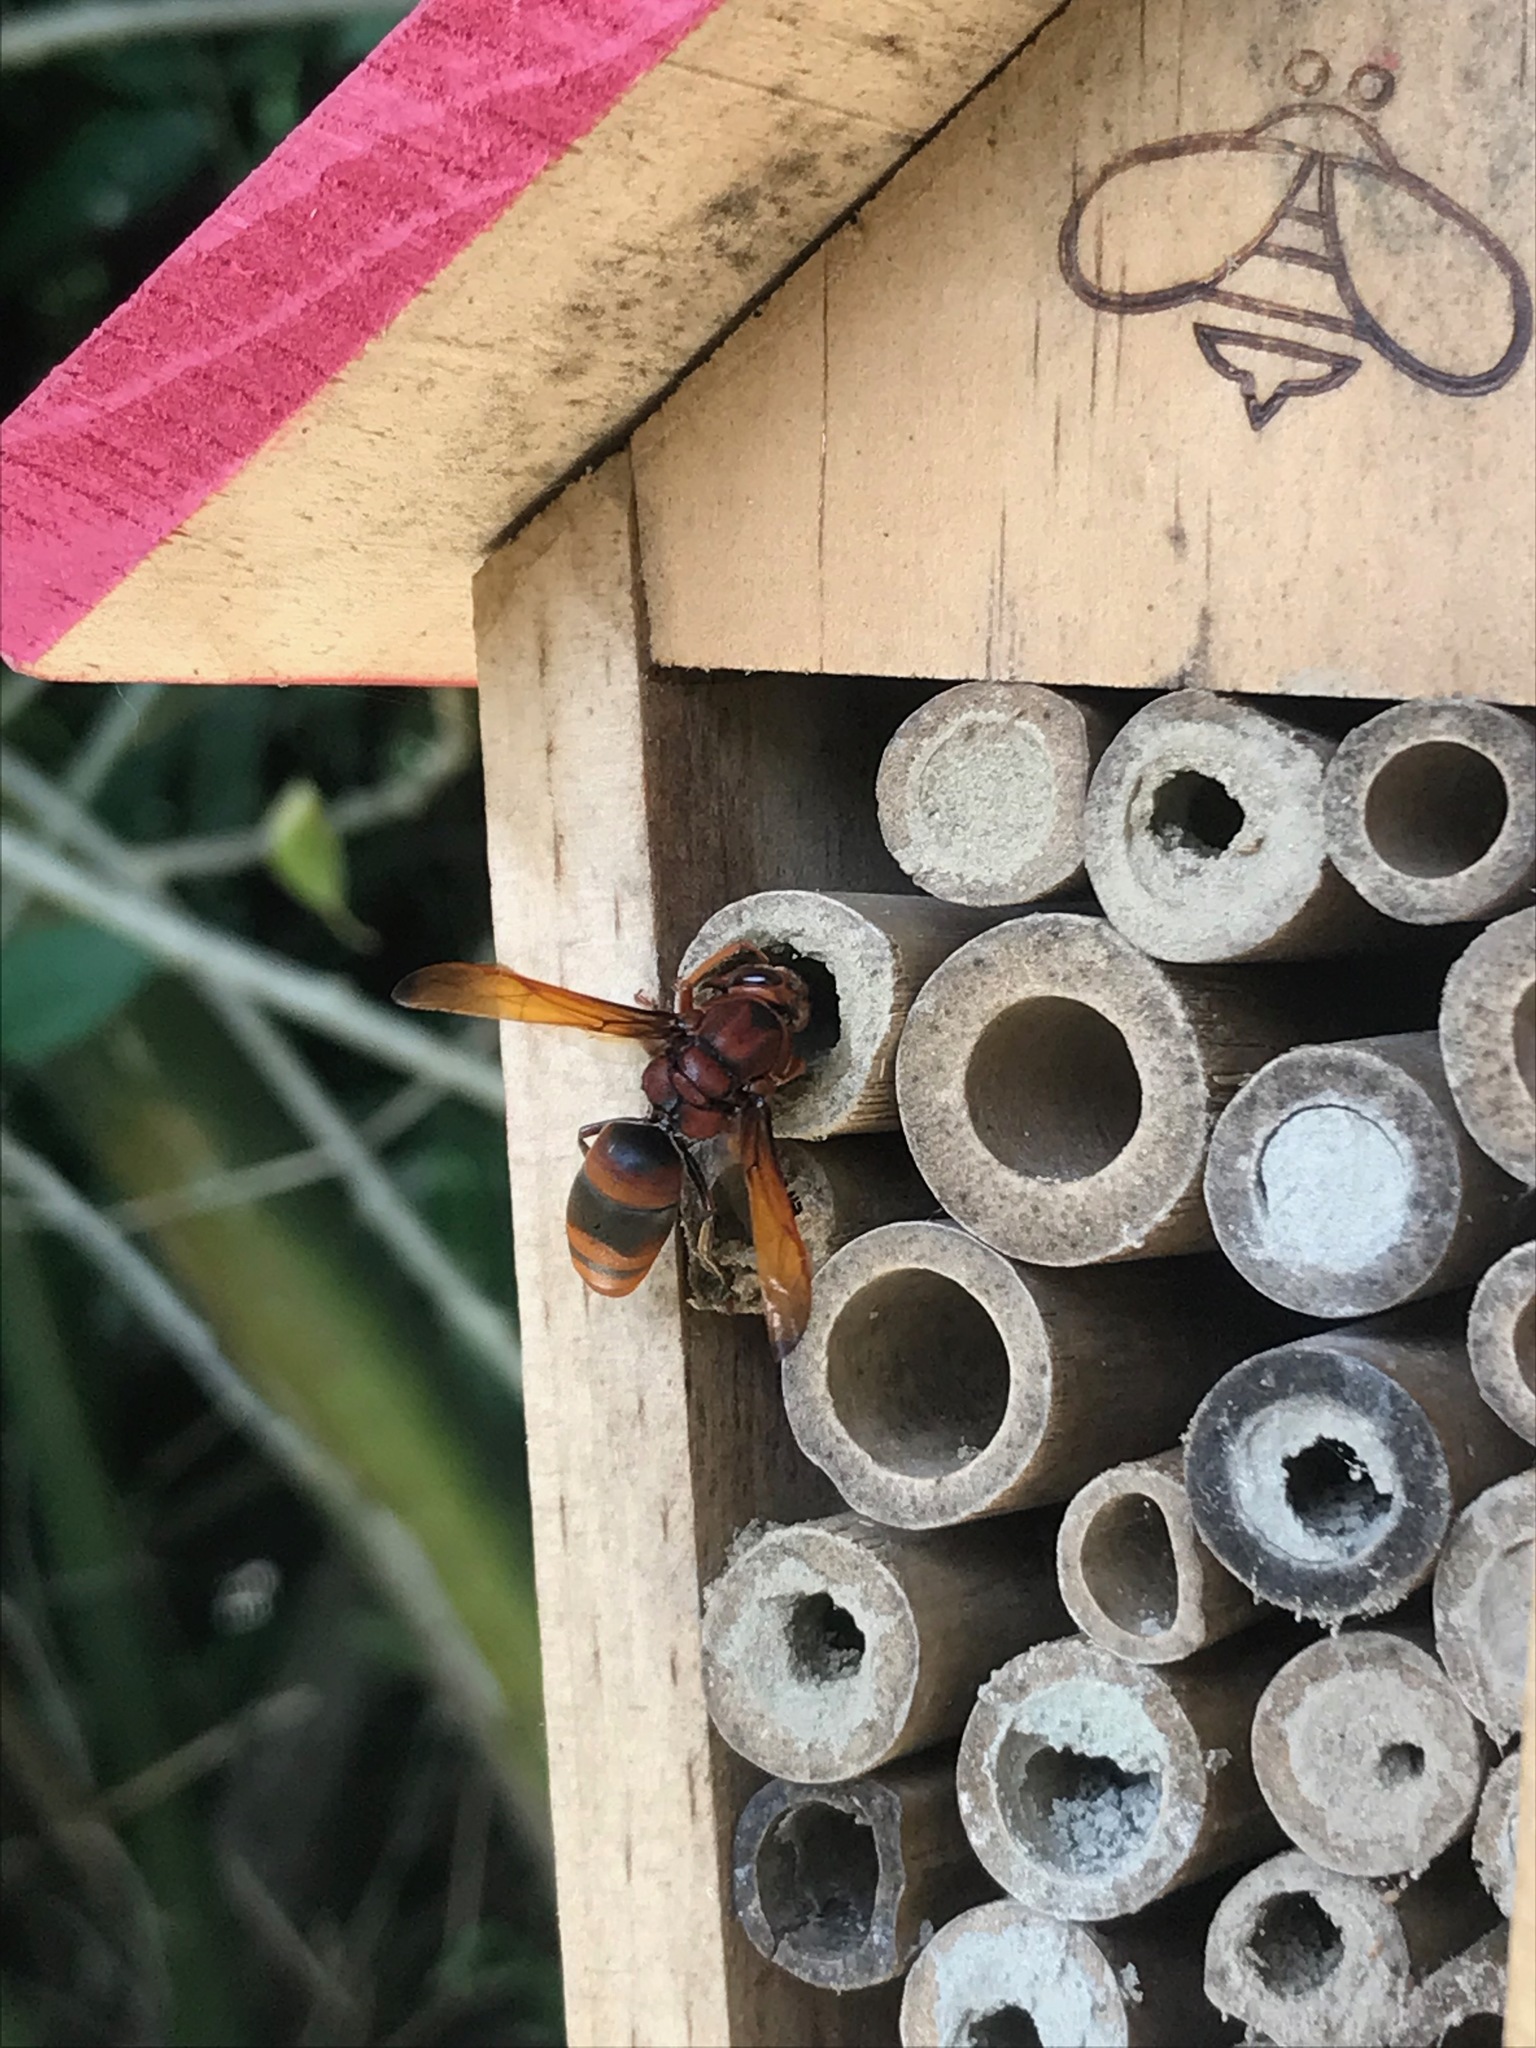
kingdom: Animalia
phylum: Arthropoda
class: Insecta
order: Hymenoptera
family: Eumenidae
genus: Rhynchium
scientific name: Rhynchium brunneum
